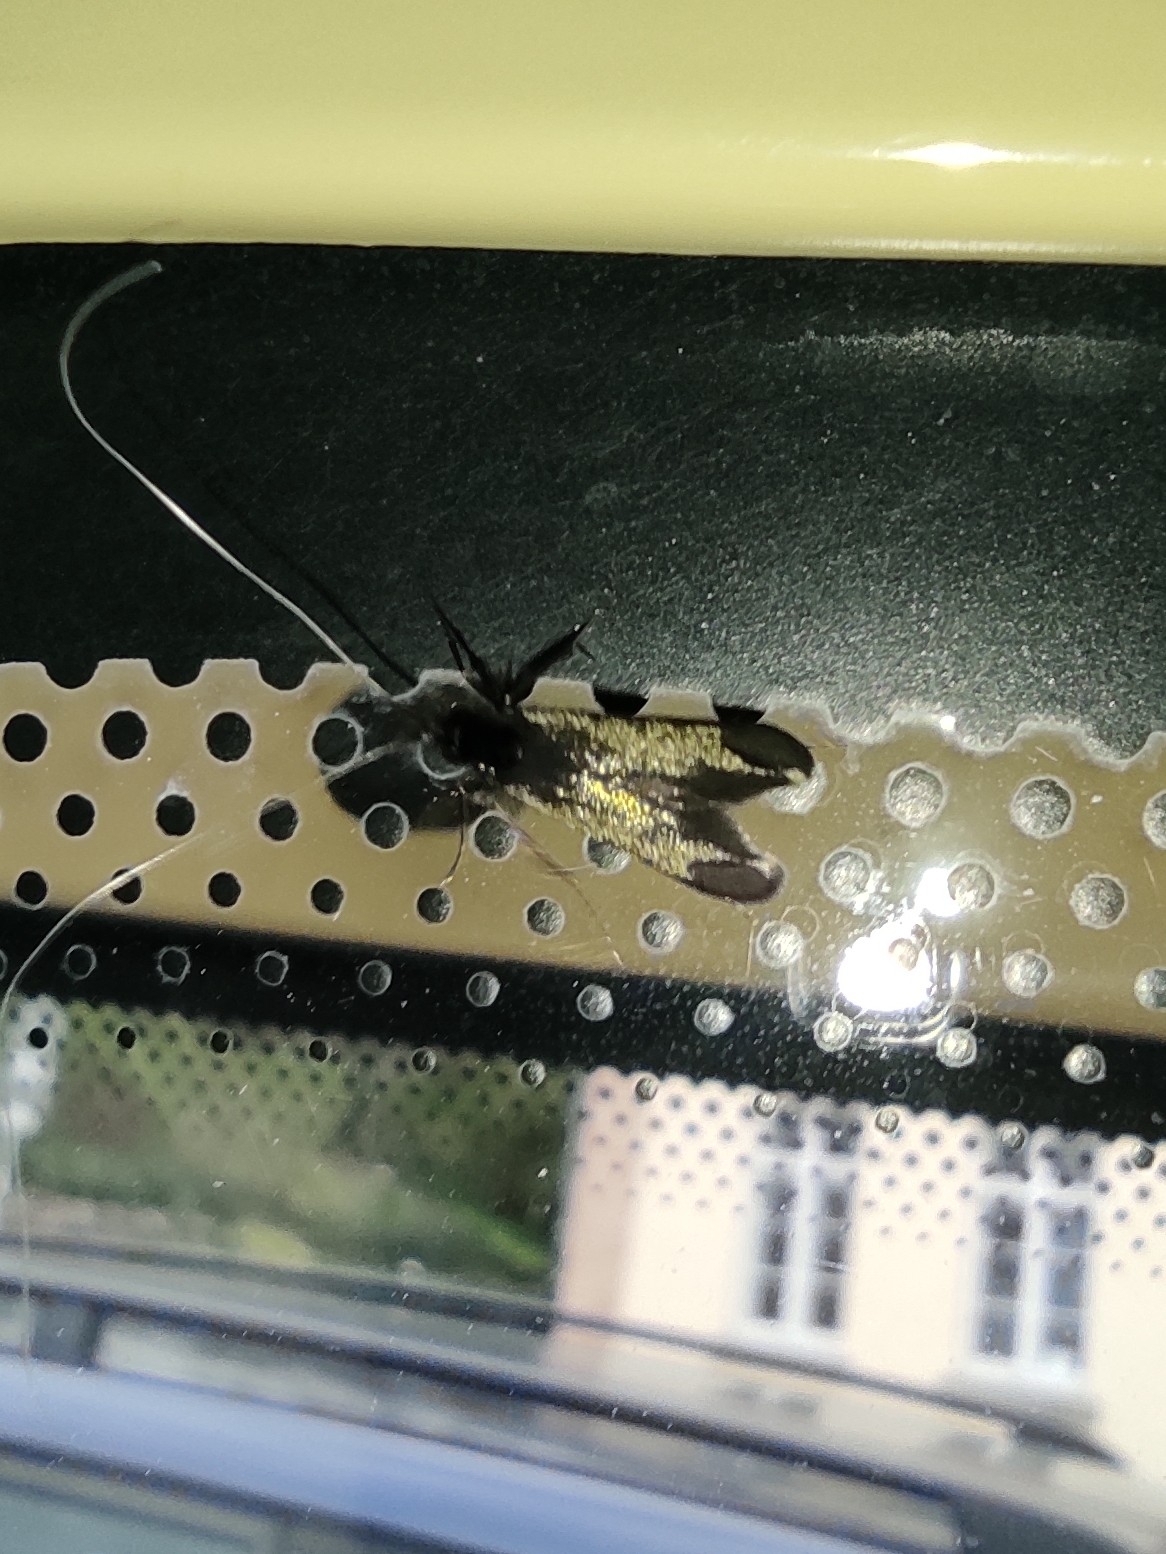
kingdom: Animalia
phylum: Arthropoda
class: Insecta
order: Lepidoptera
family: Adelidae
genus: Adela
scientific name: Adela viridella
